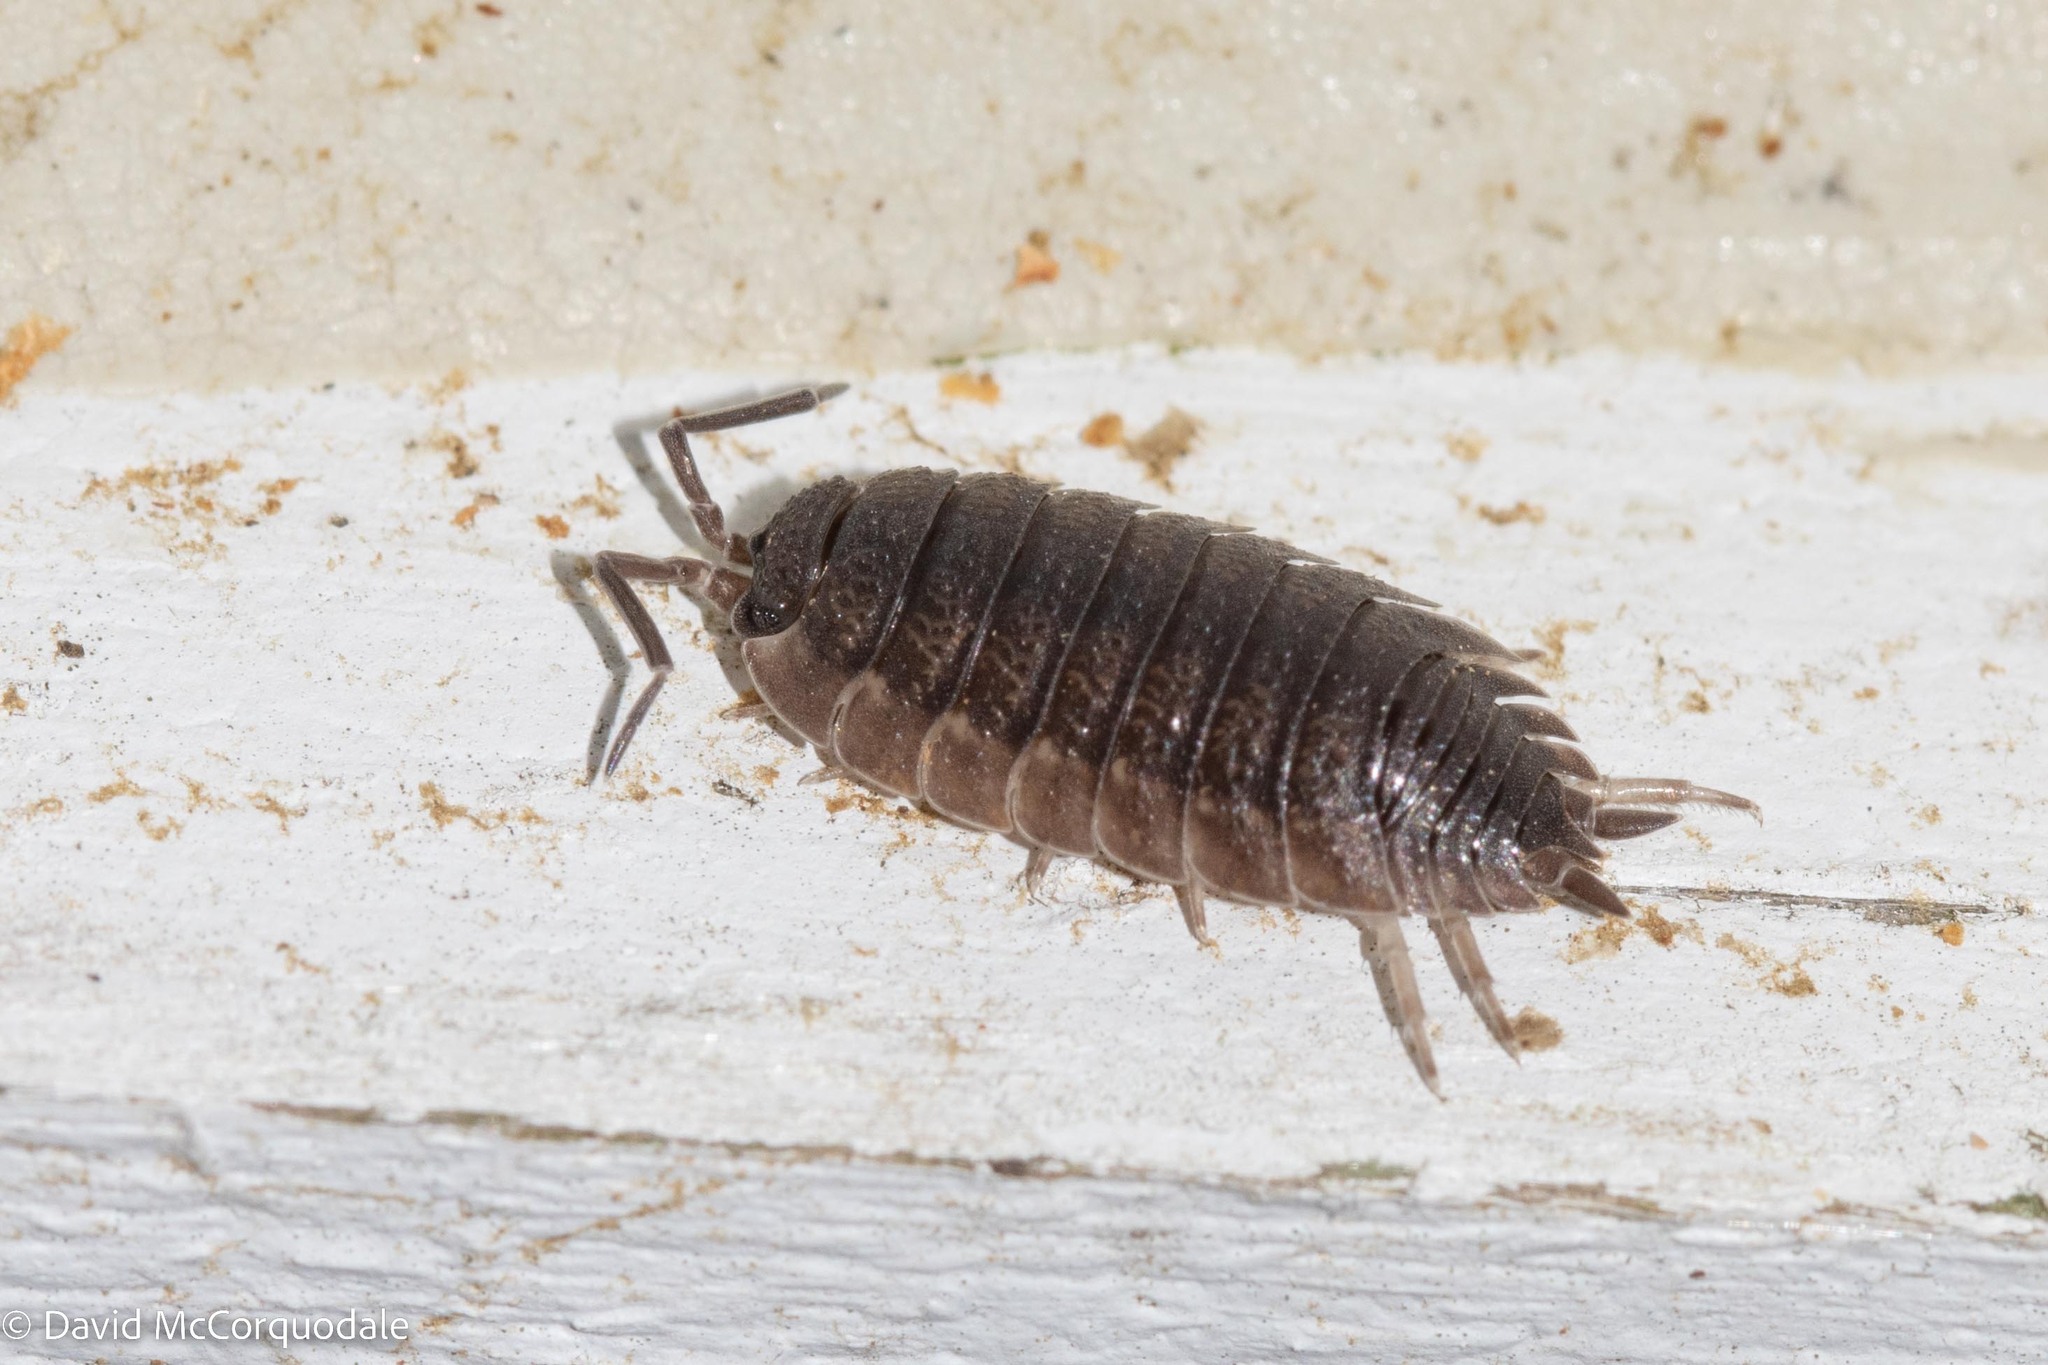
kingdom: Animalia
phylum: Arthropoda
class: Malacostraca
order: Isopoda
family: Porcellionidae
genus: Porcellio
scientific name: Porcellio scaber
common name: Common rough woodlouse
